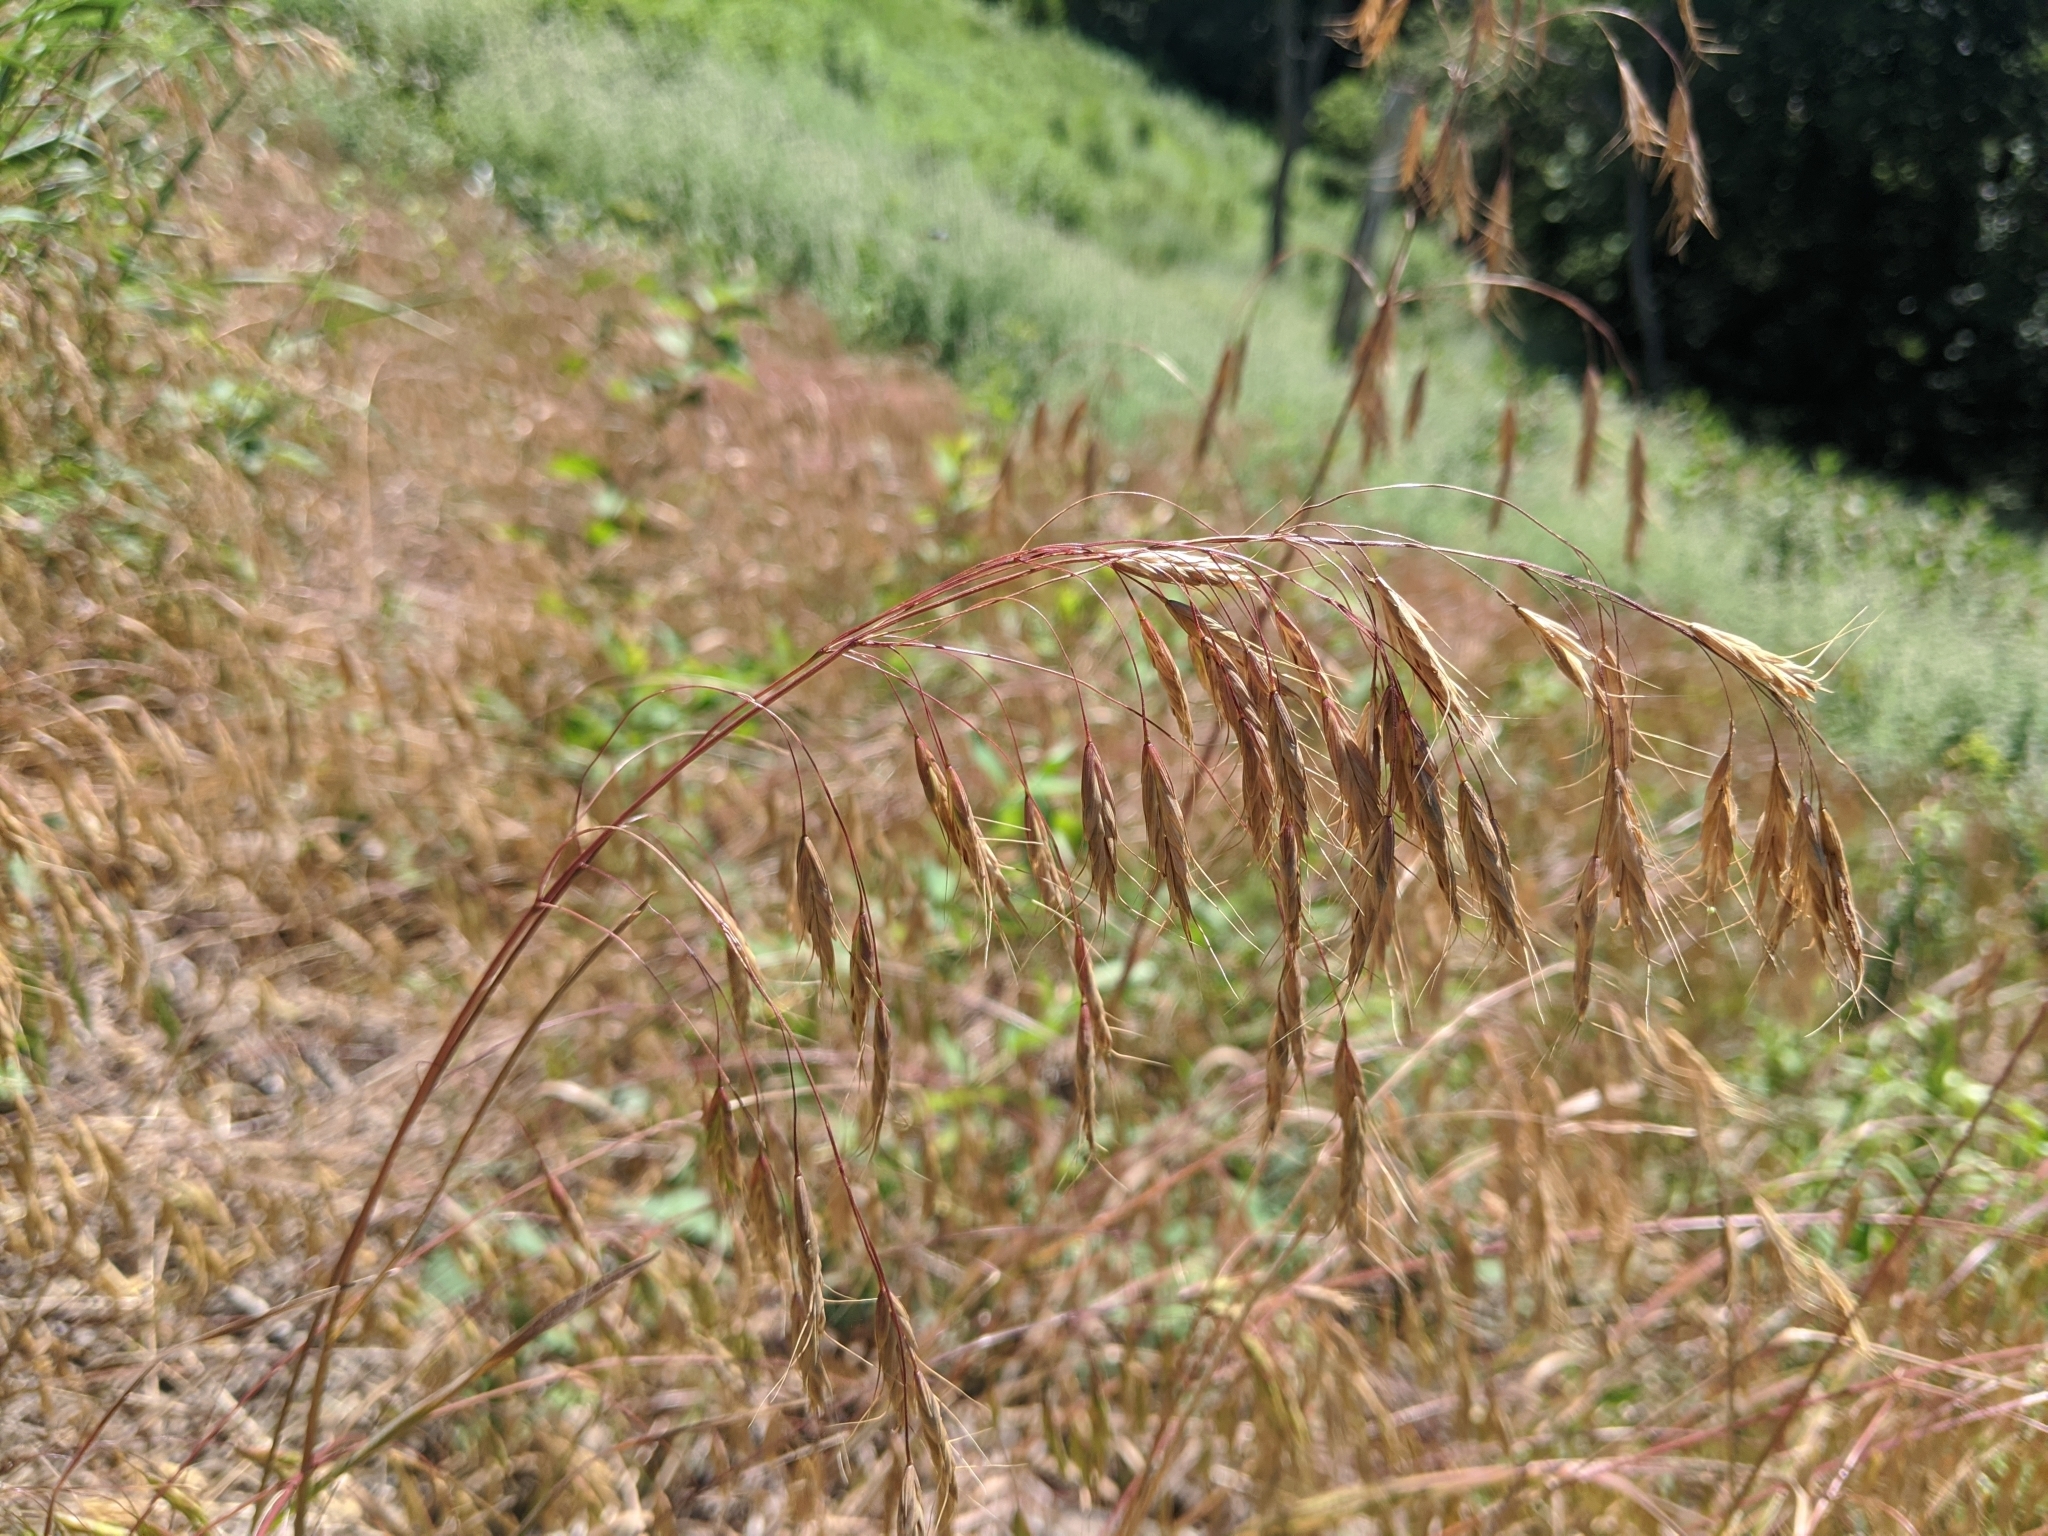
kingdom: Plantae
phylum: Tracheophyta
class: Liliopsida
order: Poales
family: Poaceae
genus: Bromus
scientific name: Bromus japonicus
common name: Japanese brome
